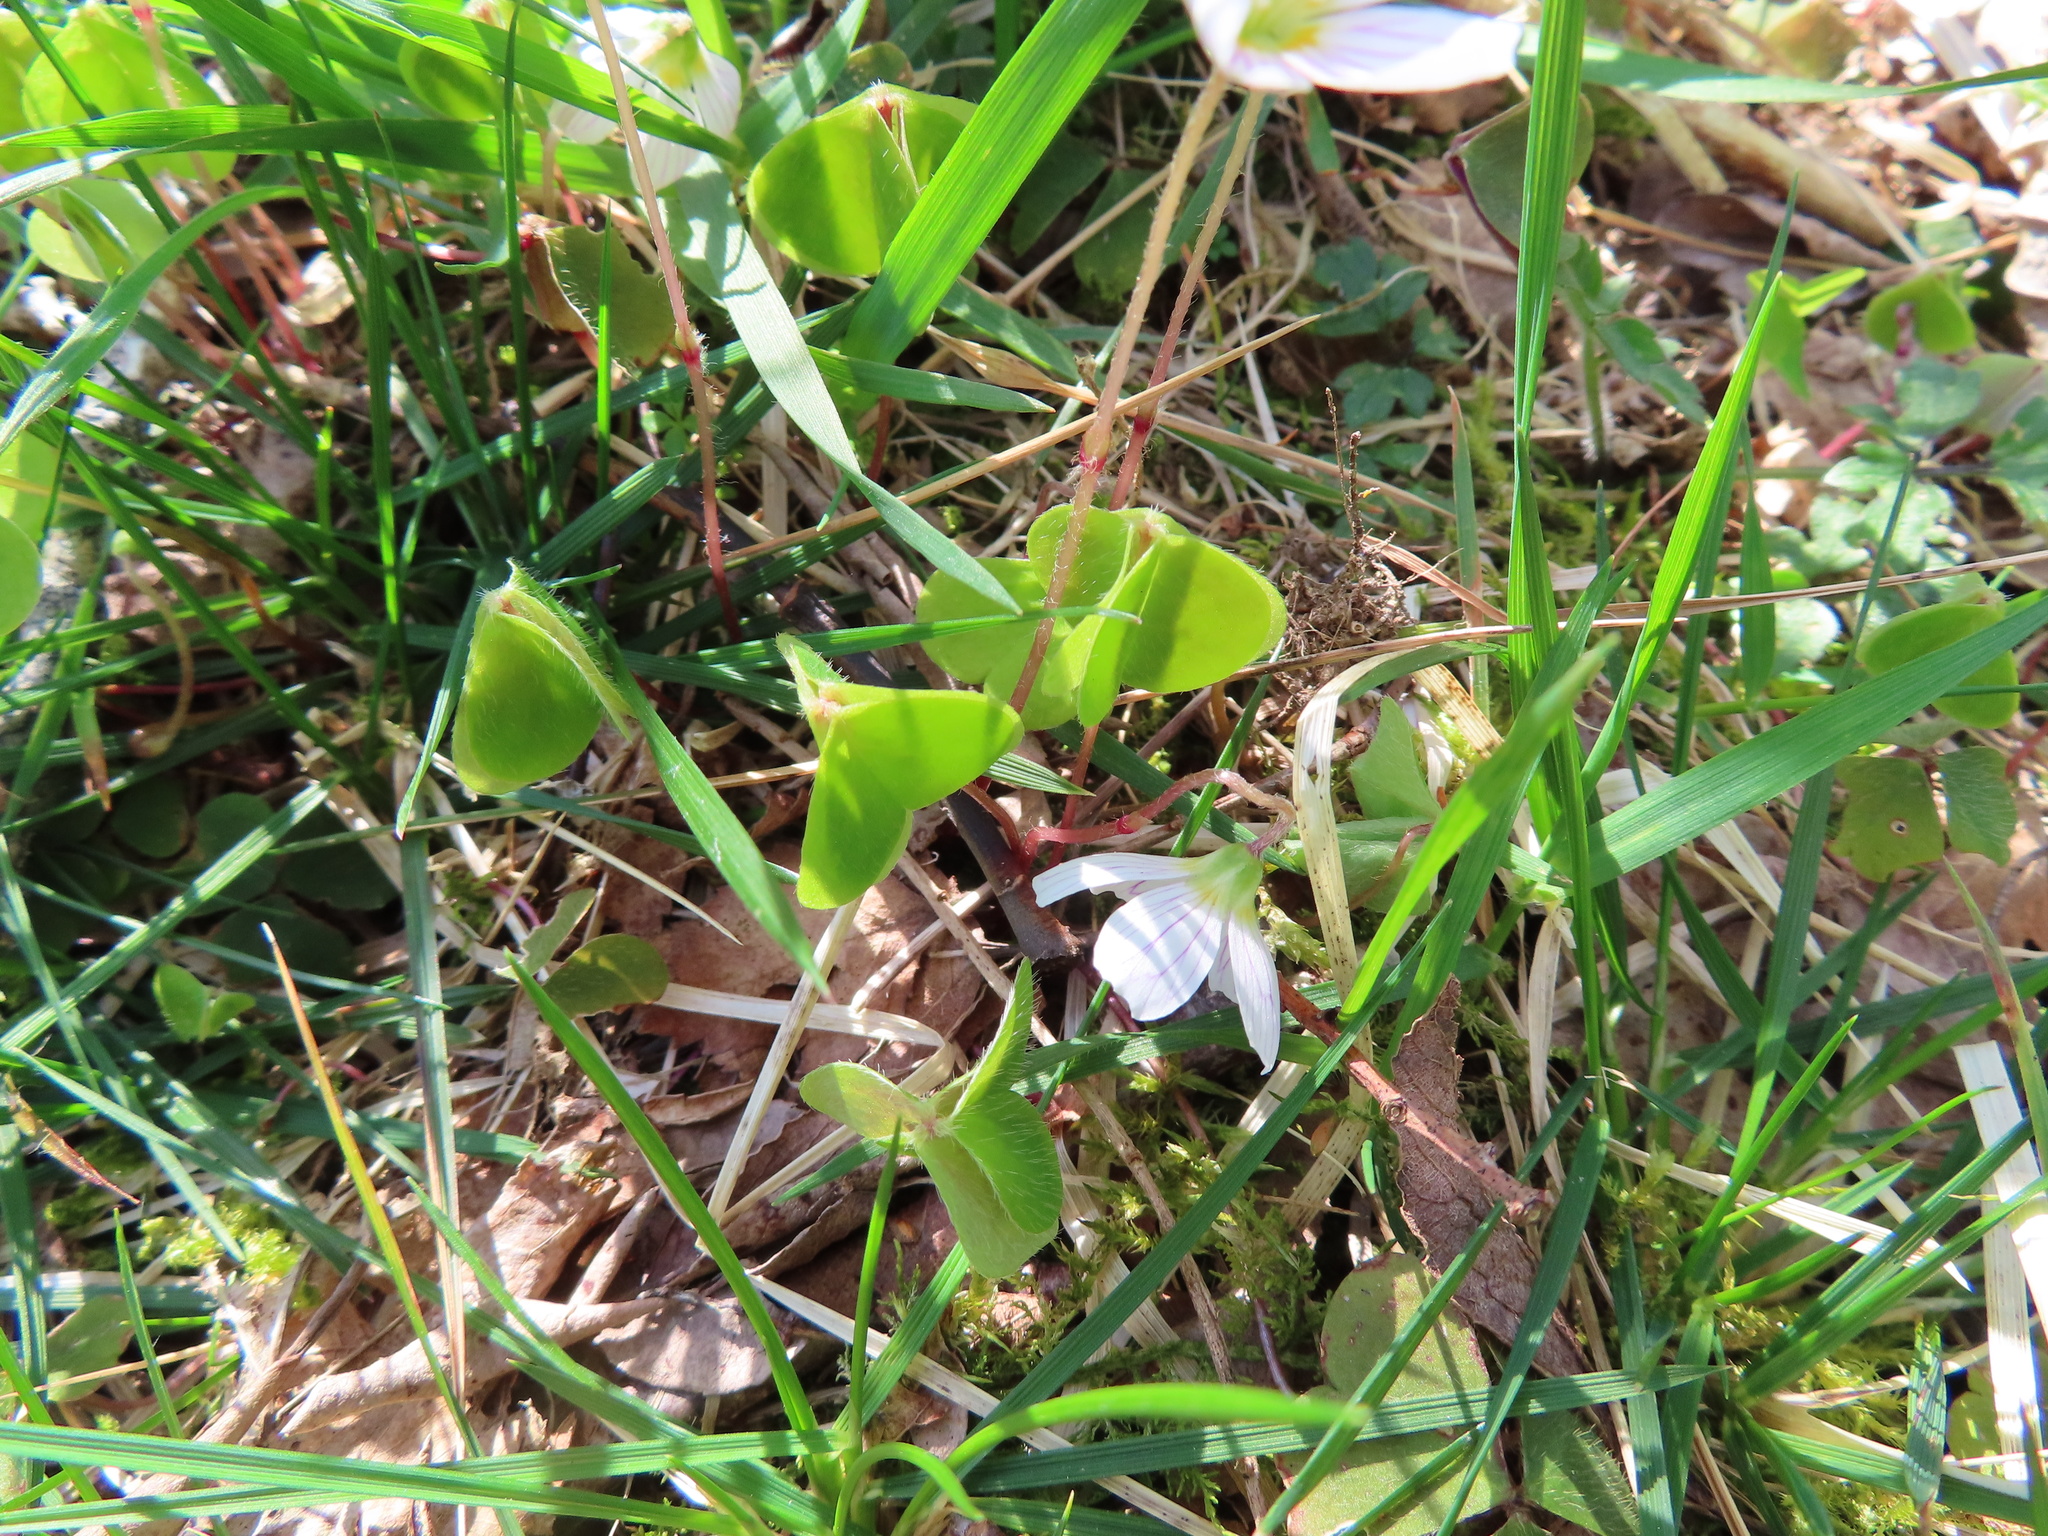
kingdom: Plantae
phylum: Tracheophyta
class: Magnoliopsida
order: Oxalidales
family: Oxalidaceae
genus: Oxalis
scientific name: Oxalis acetosella
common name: Wood-sorrel
